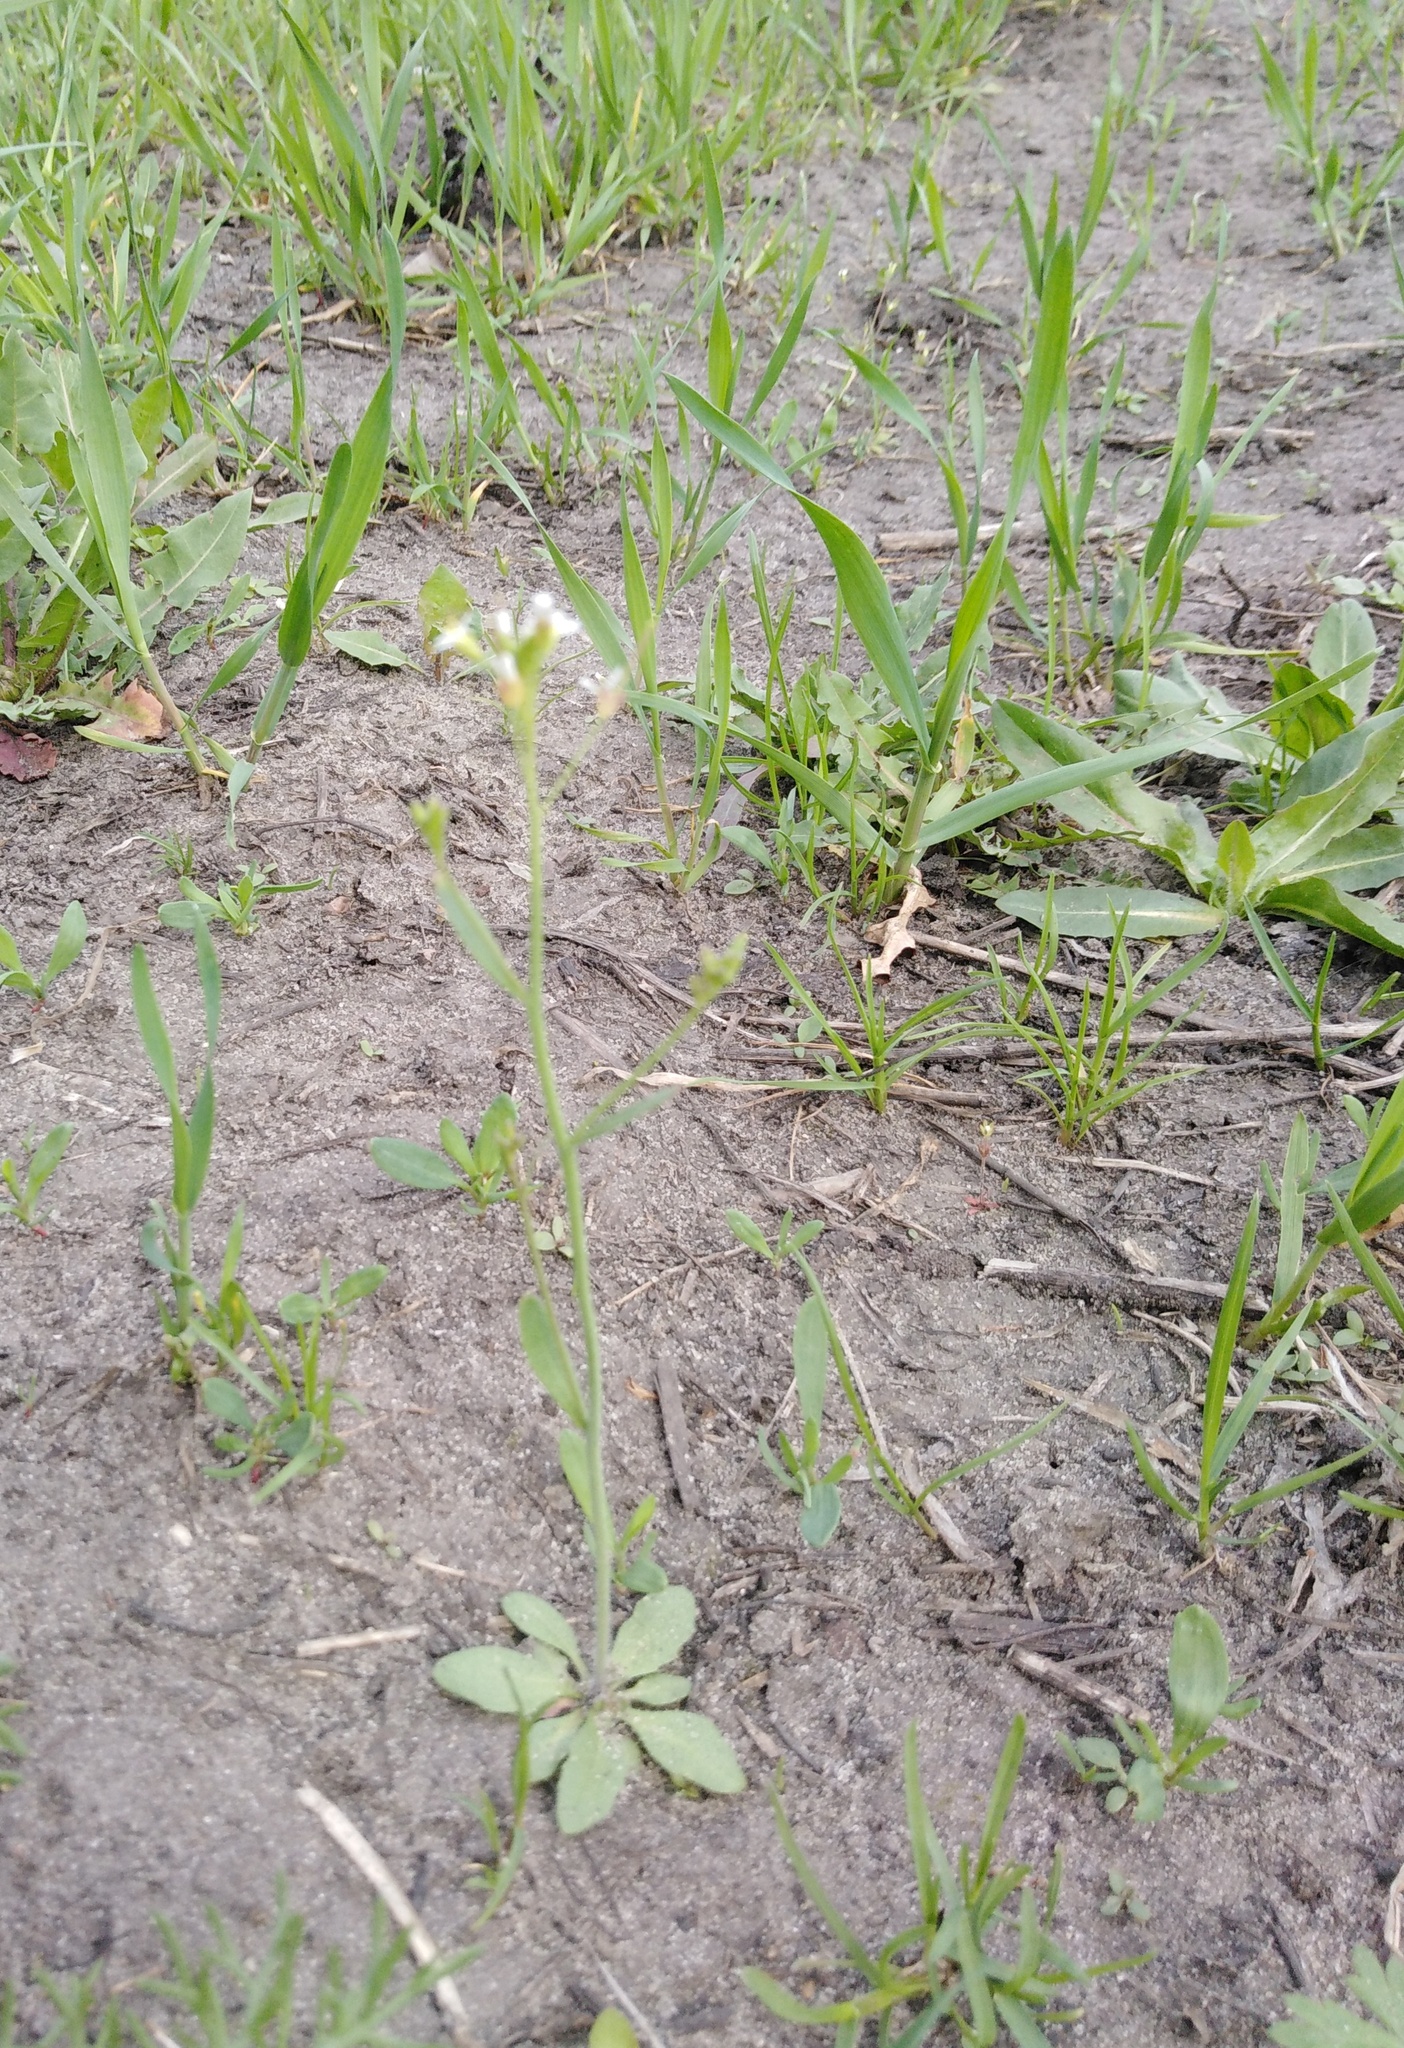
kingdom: Plantae
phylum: Tracheophyta
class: Magnoliopsida
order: Brassicales
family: Brassicaceae
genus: Arabidopsis
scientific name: Arabidopsis thaliana
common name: Thale cress
